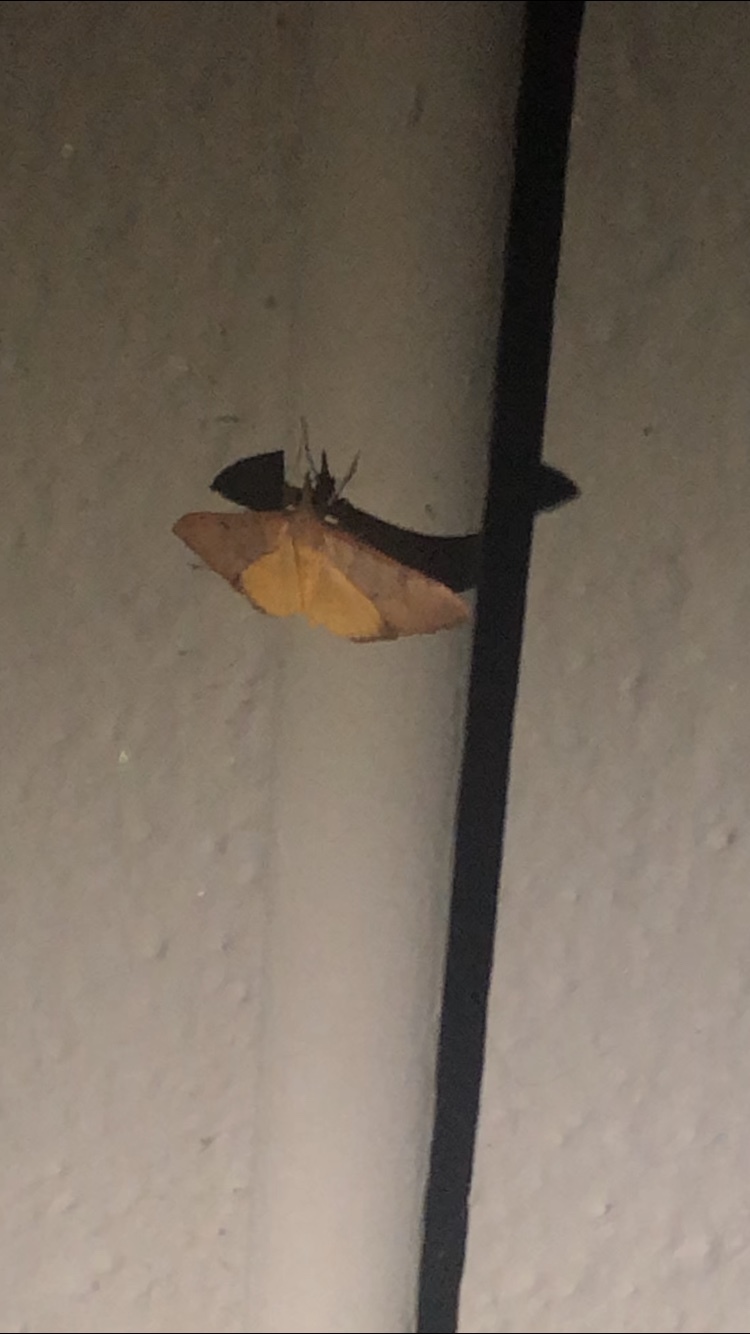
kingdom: Animalia
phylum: Arthropoda
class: Insecta
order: Lepidoptera
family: Crambidae
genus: Uresiphita
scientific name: Uresiphita reversalis
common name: Genista broom moth
